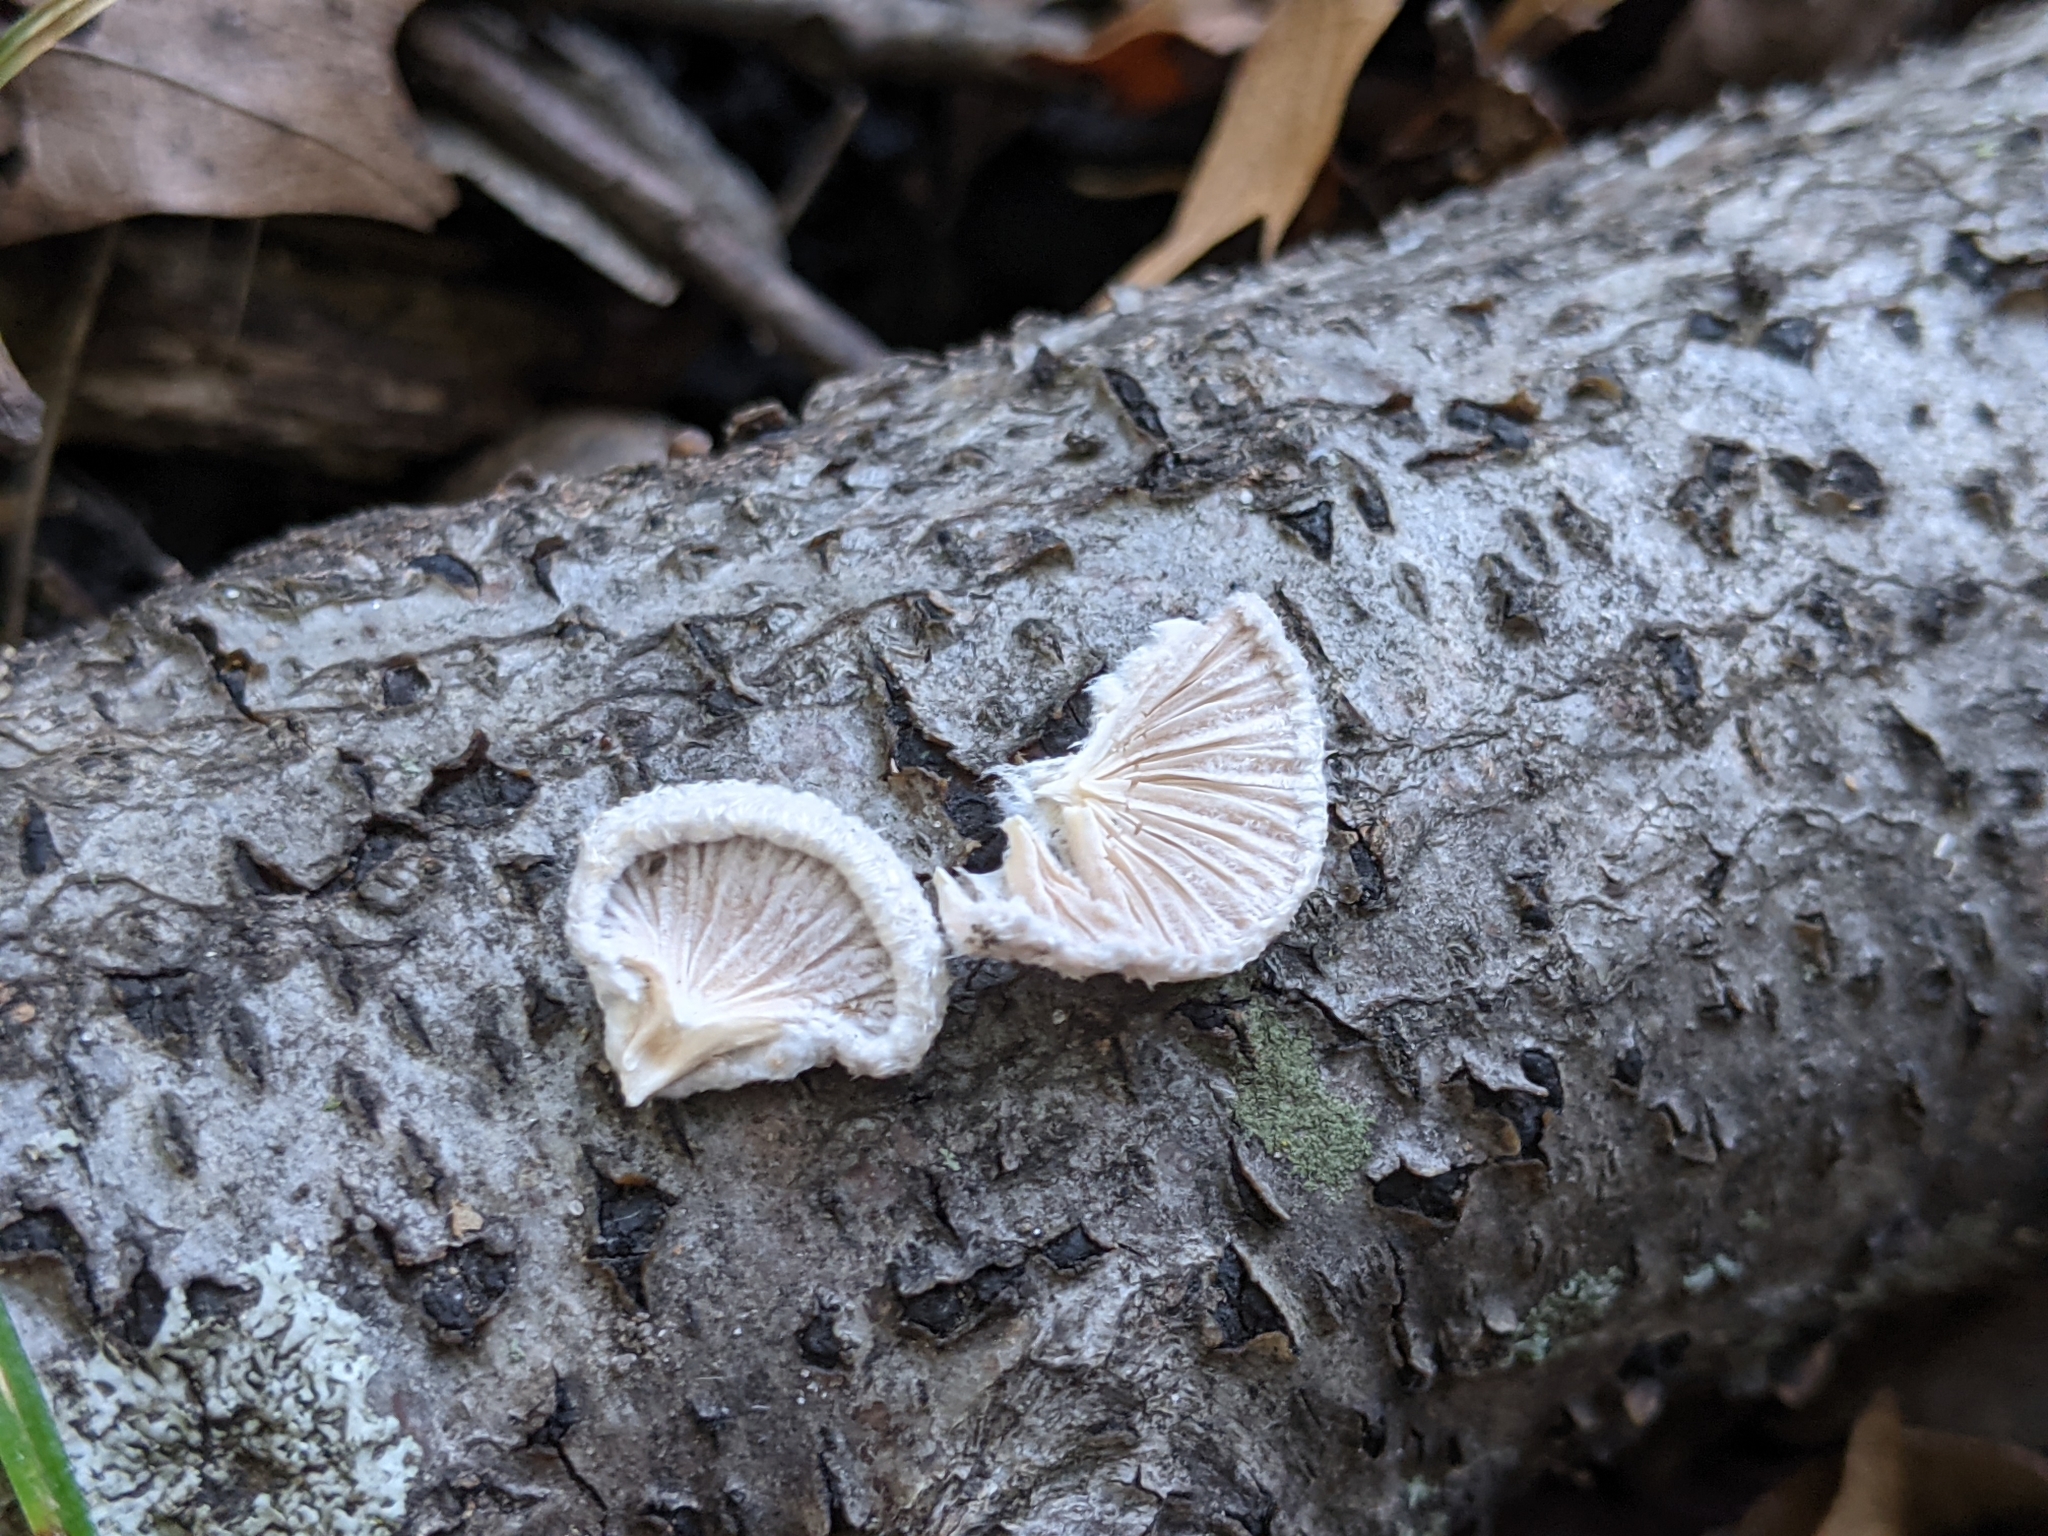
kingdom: Fungi
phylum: Basidiomycota
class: Agaricomycetes
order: Agaricales
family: Schizophyllaceae
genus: Schizophyllum
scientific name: Schizophyllum commune
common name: Common porecrust
